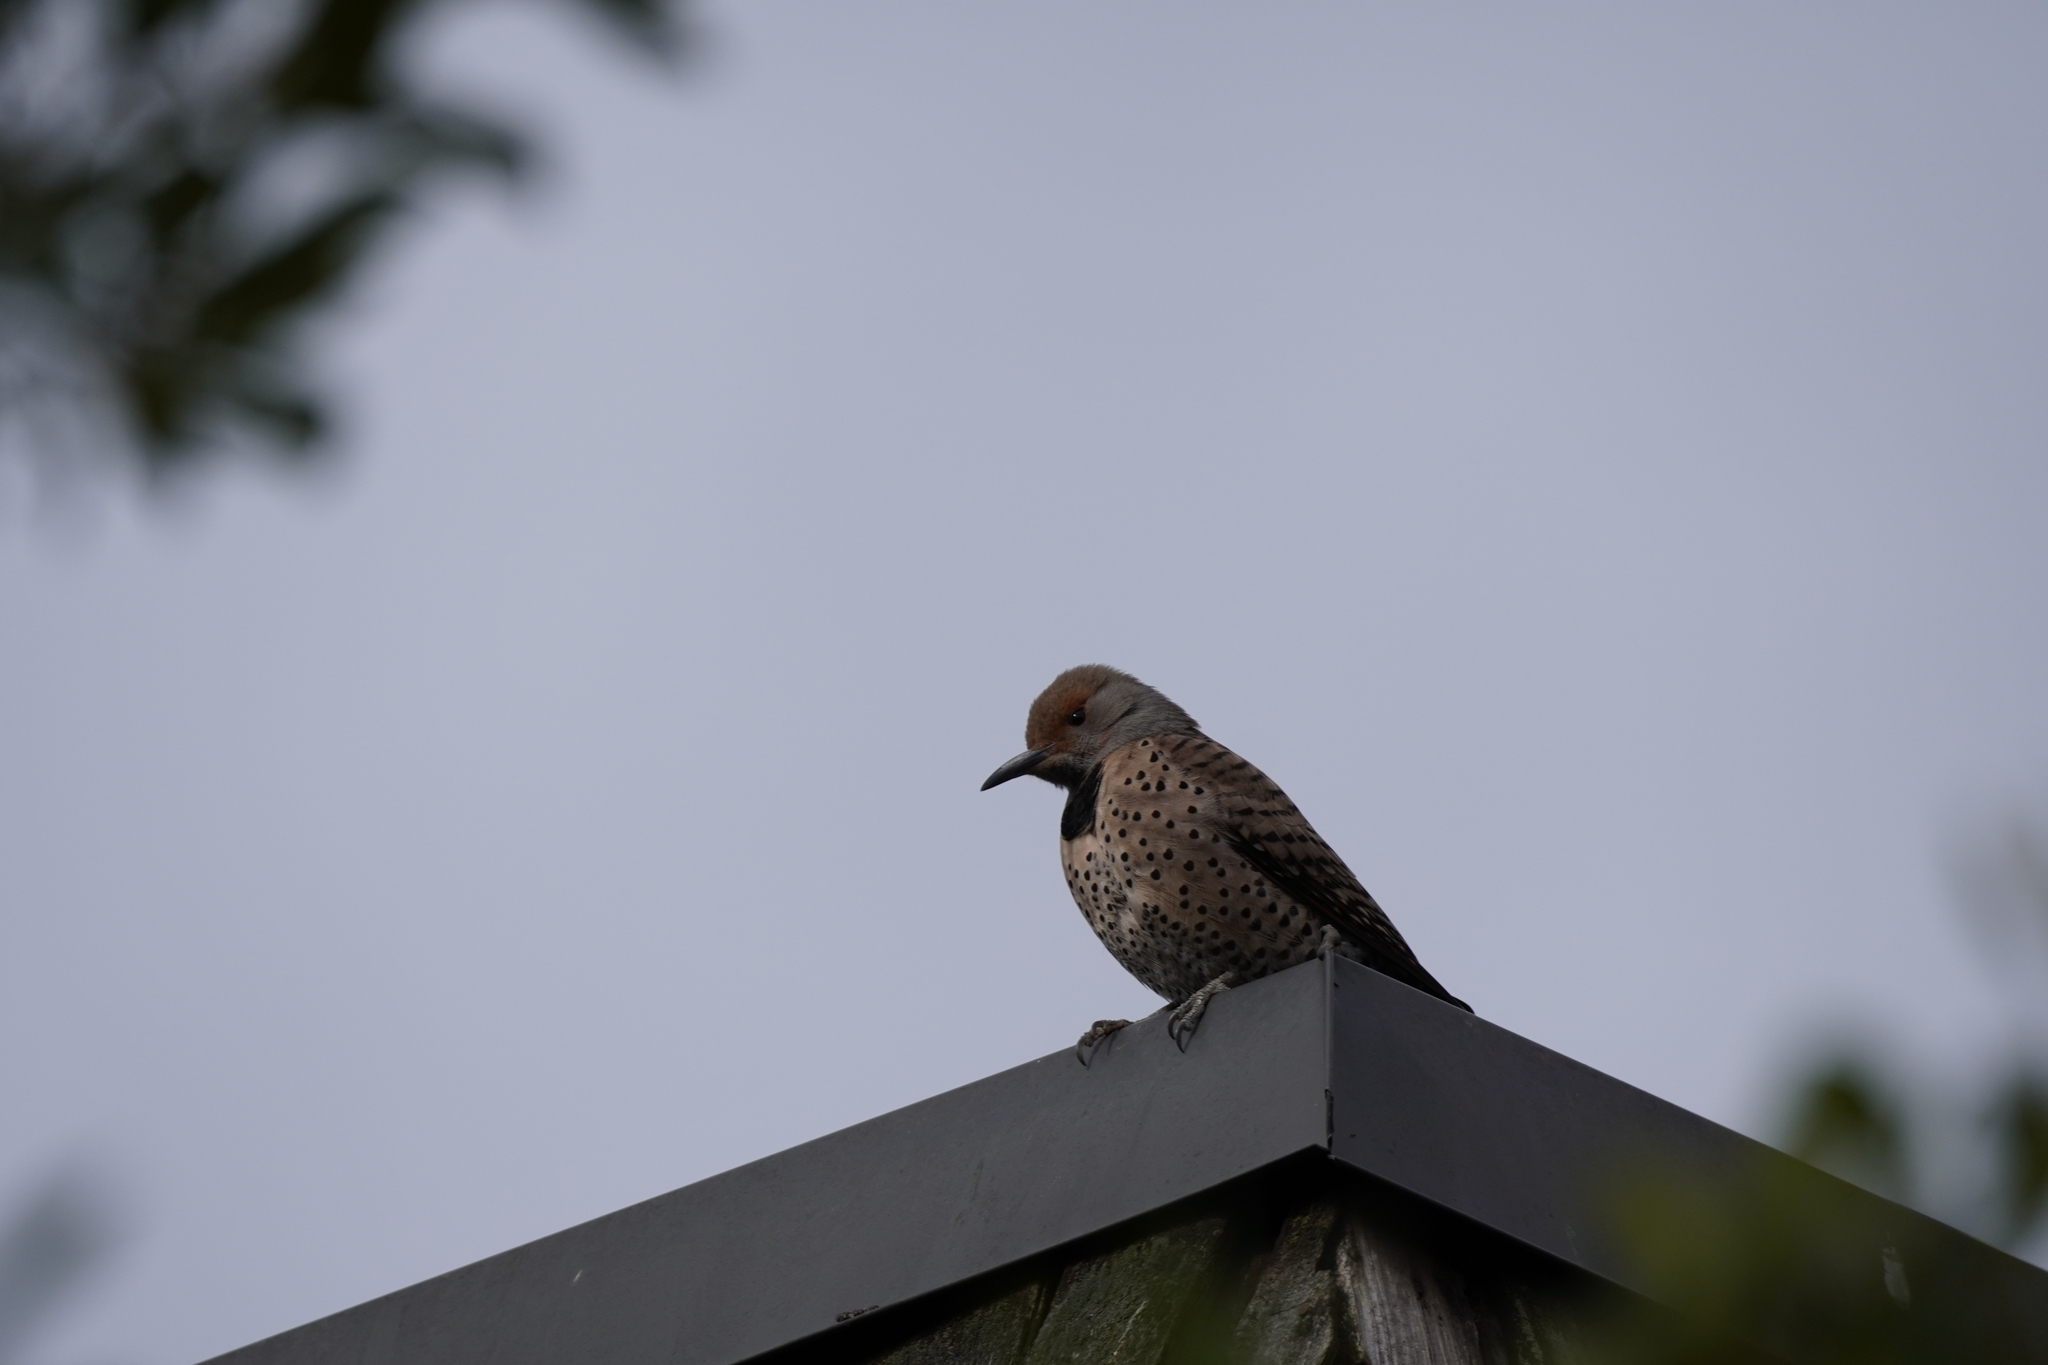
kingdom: Animalia
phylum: Chordata
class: Aves
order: Piciformes
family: Picidae
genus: Colaptes
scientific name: Colaptes auratus
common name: Northern flicker
